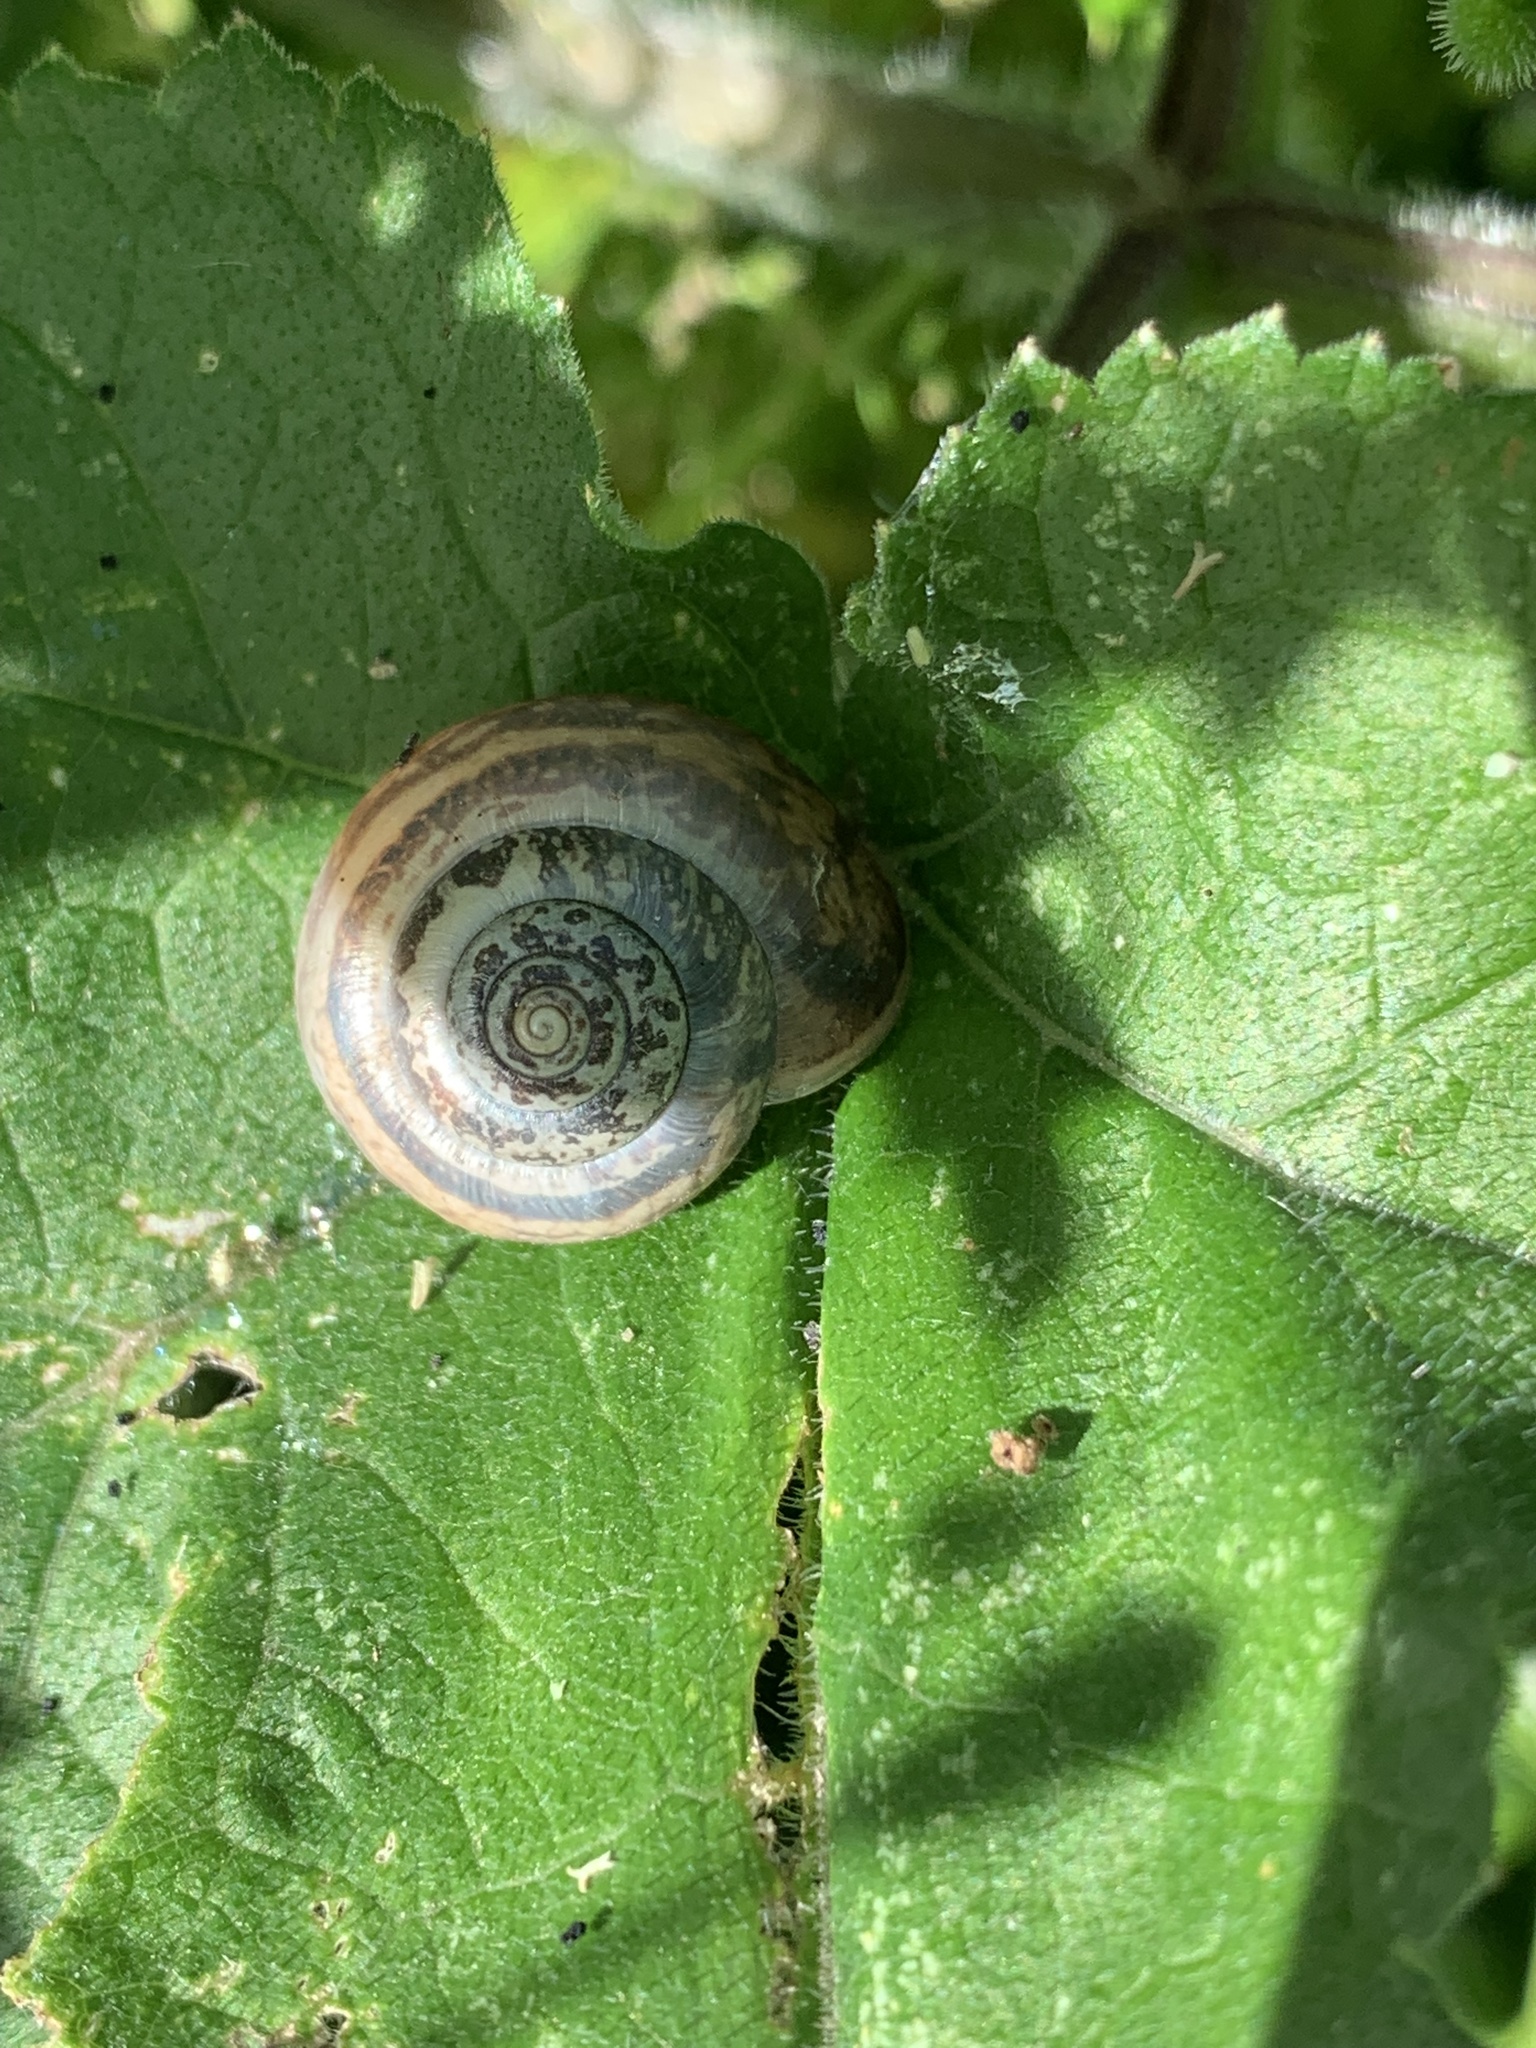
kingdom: Animalia
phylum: Mollusca
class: Gastropoda
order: Stylommatophora
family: Hygromiidae
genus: Monacha
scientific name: Monacha cantiana
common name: Kentish snail
